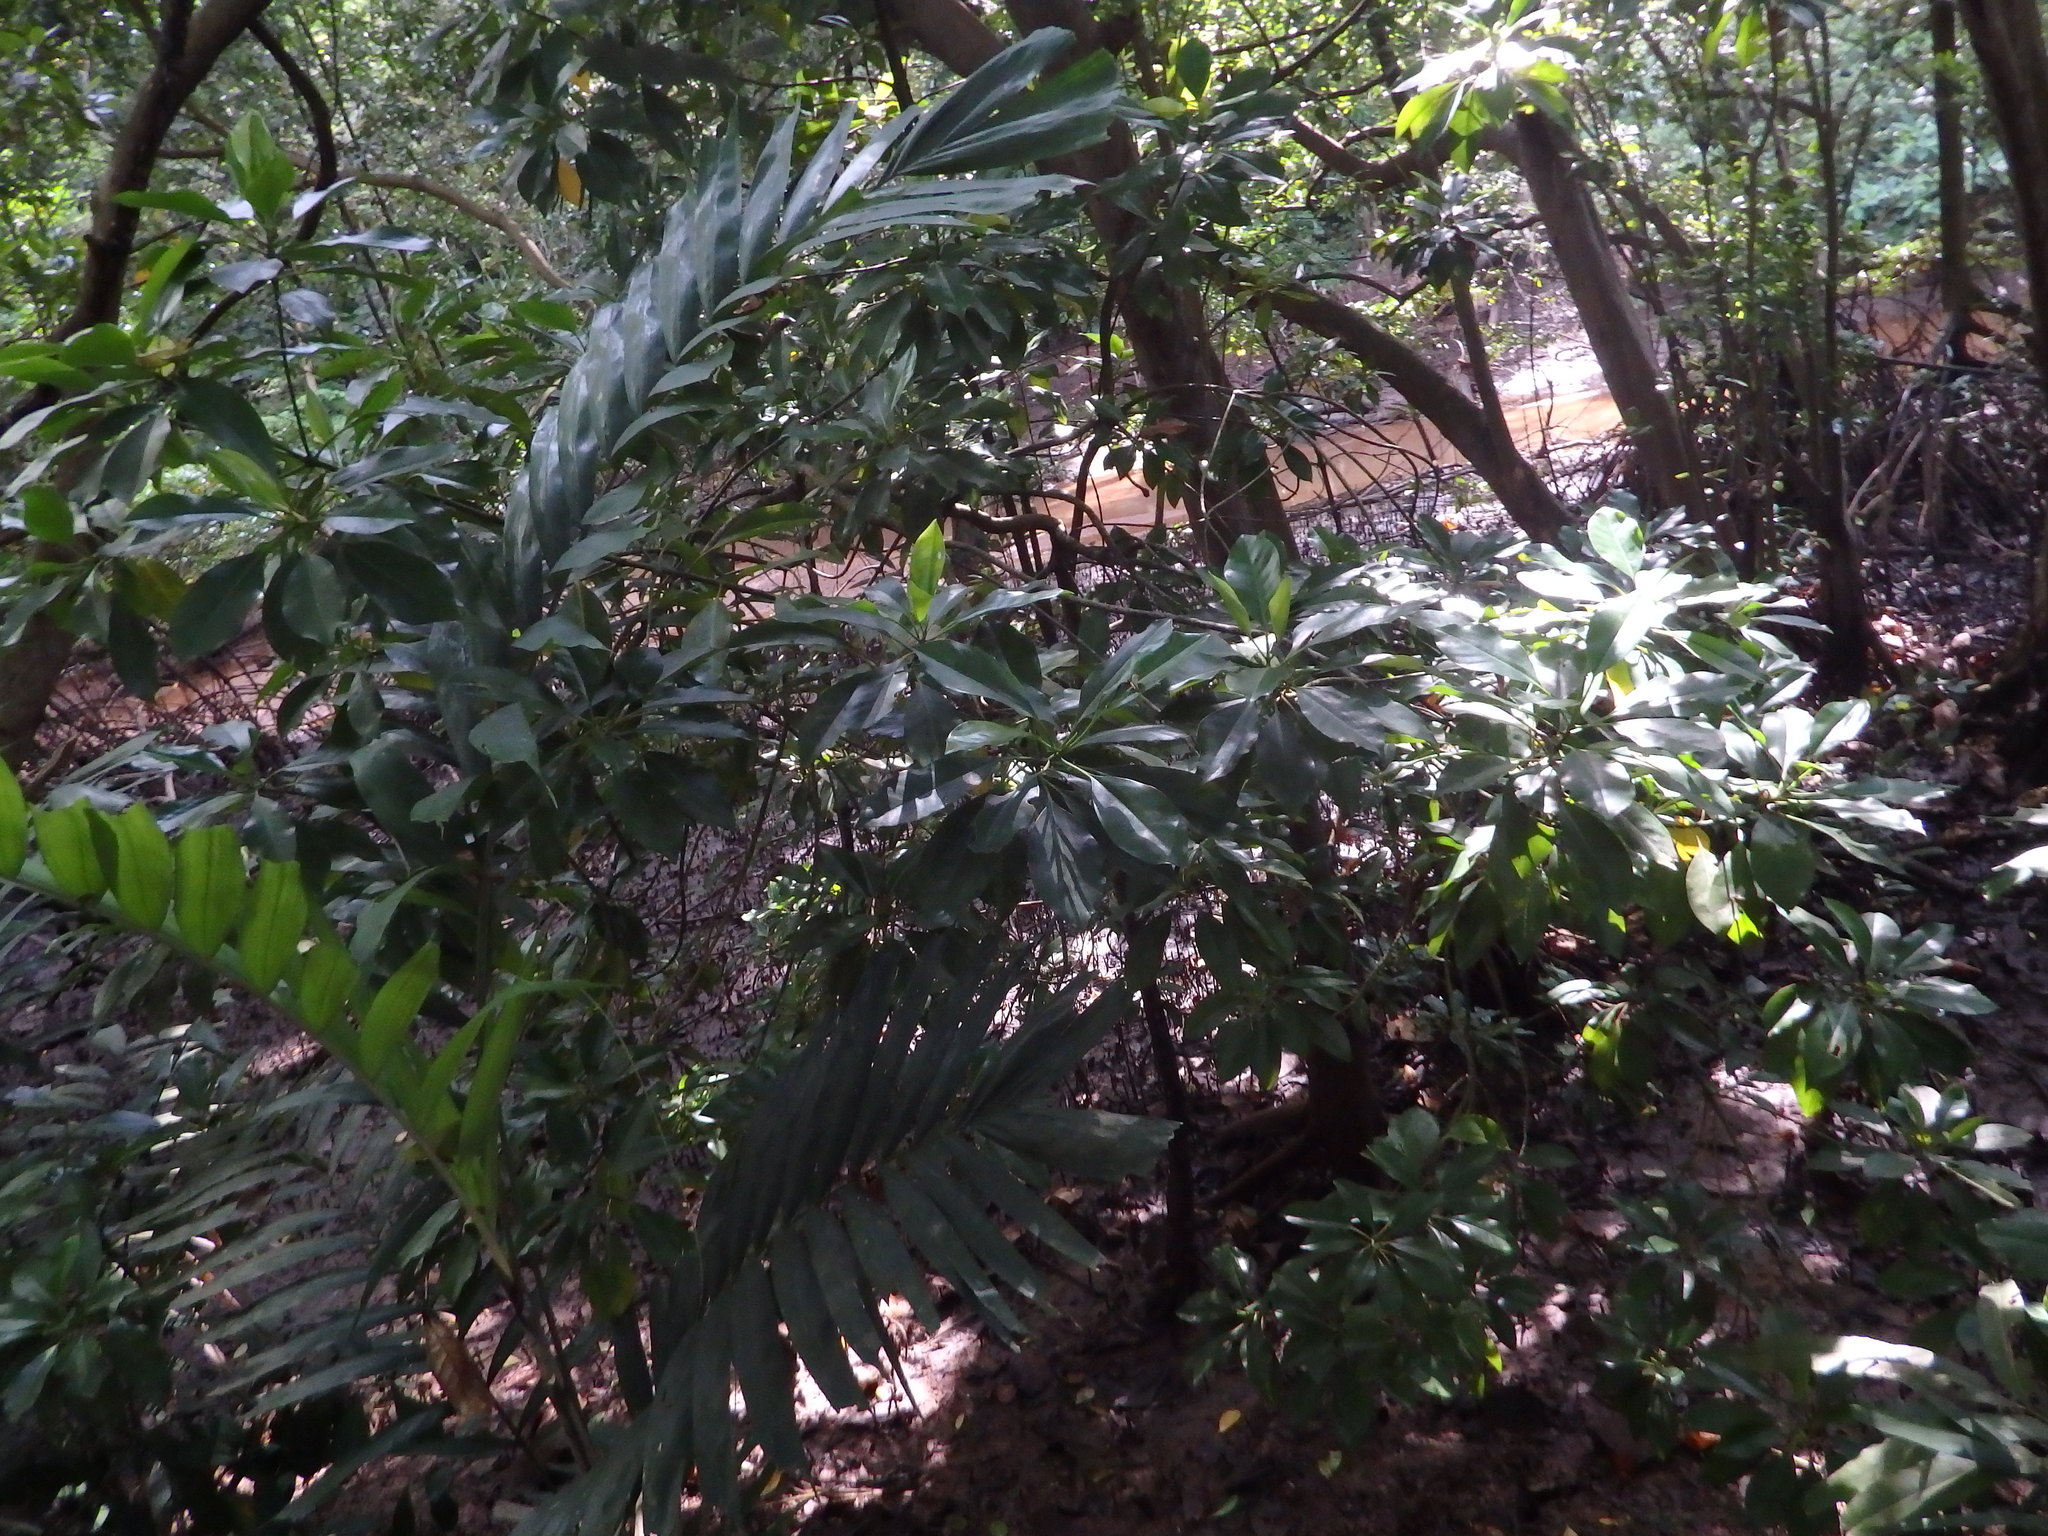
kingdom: Plantae
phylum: Tracheophyta
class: Magnoliopsida
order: Malpighiales
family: Rhizophoraceae
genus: Bruguiera
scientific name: Bruguiera cylindrica
